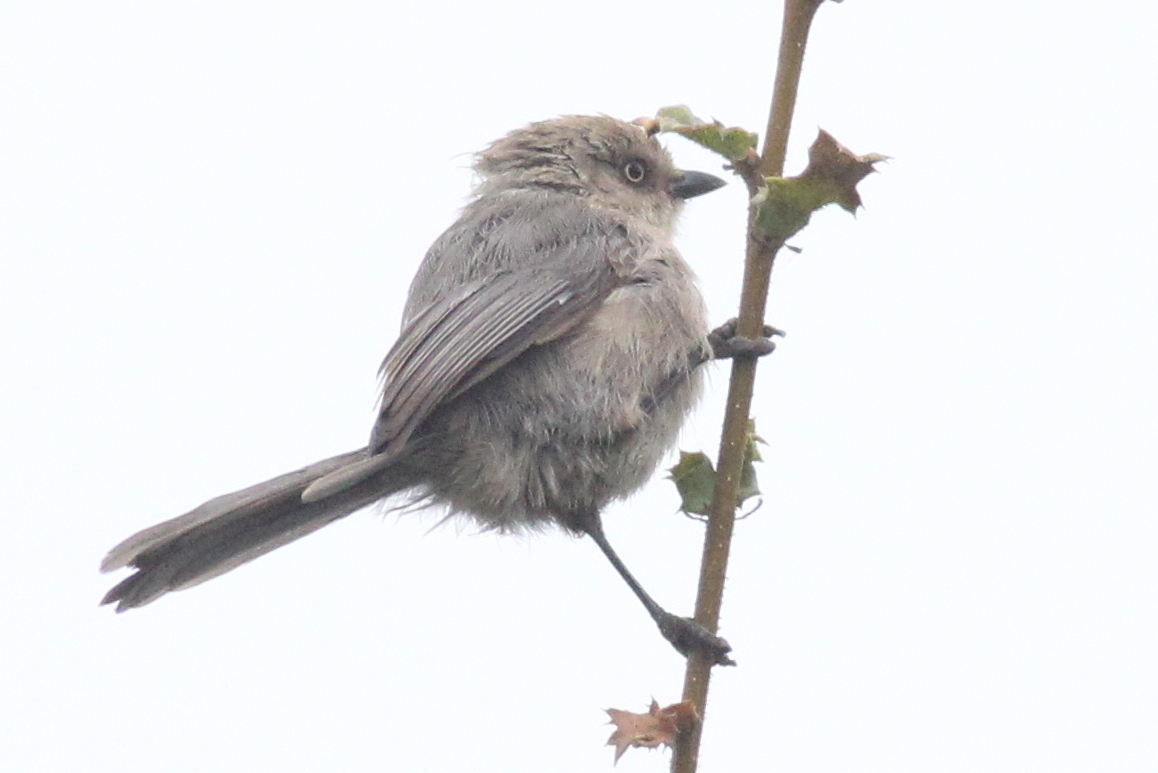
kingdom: Animalia
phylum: Chordata
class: Aves
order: Passeriformes
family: Aegithalidae
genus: Psaltriparus
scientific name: Psaltriparus minimus
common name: American bushtit
